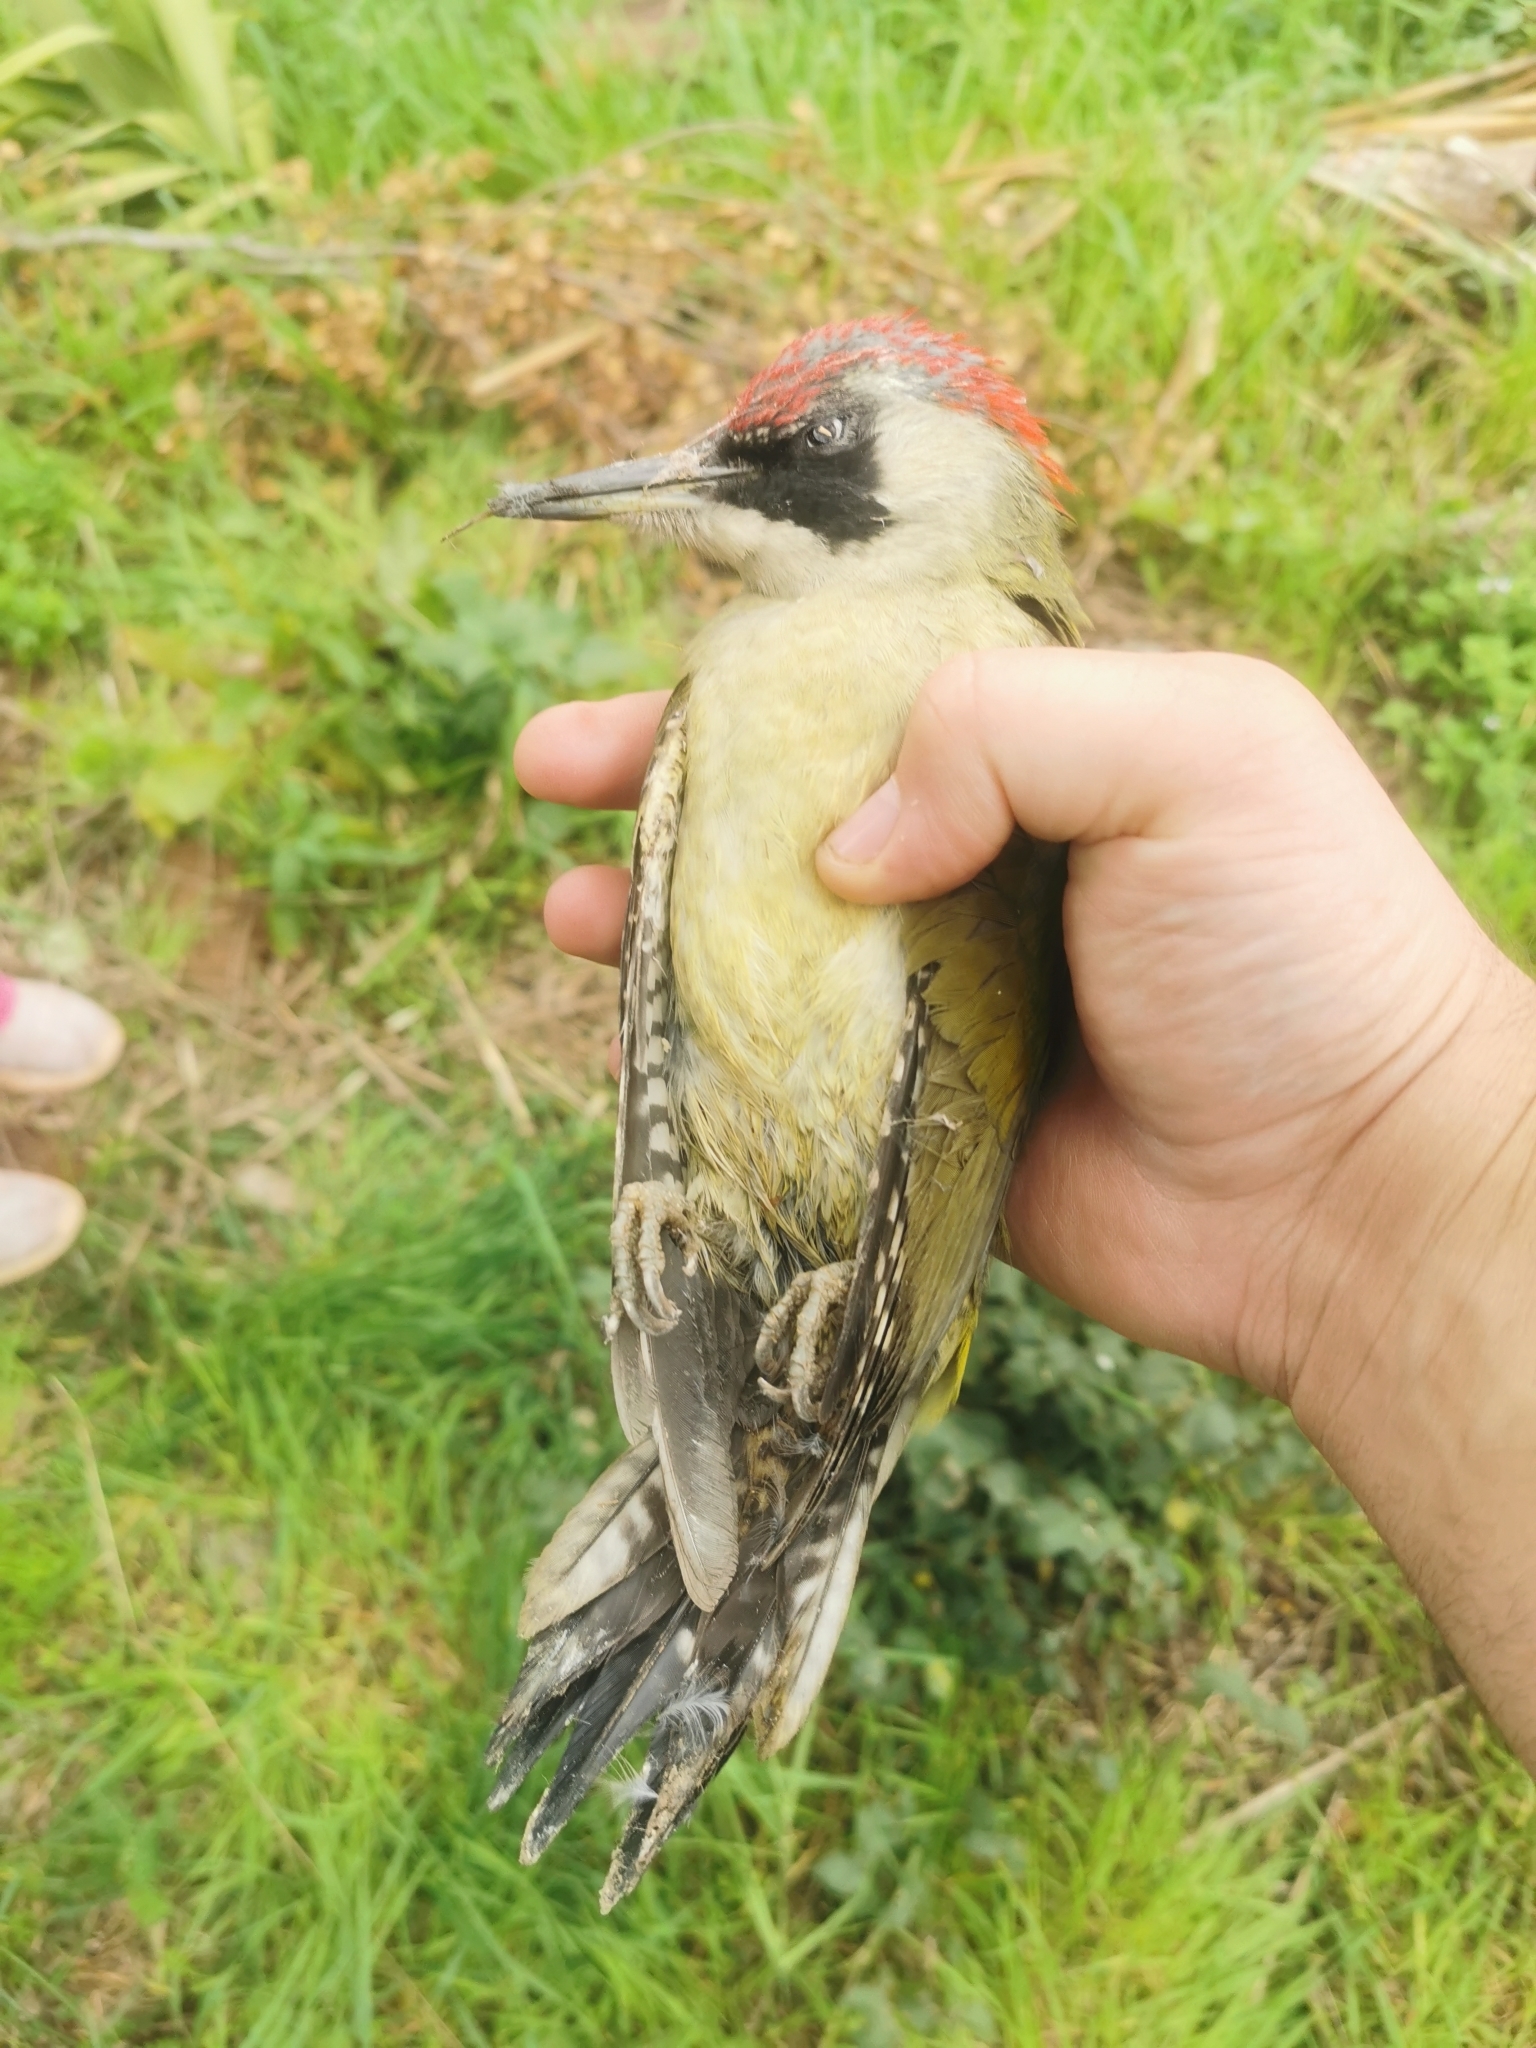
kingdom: Animalia
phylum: Chordata
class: Aves
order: Piciformes
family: Picidae
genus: Picus
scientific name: Picus viridis
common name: European green woodpecker
